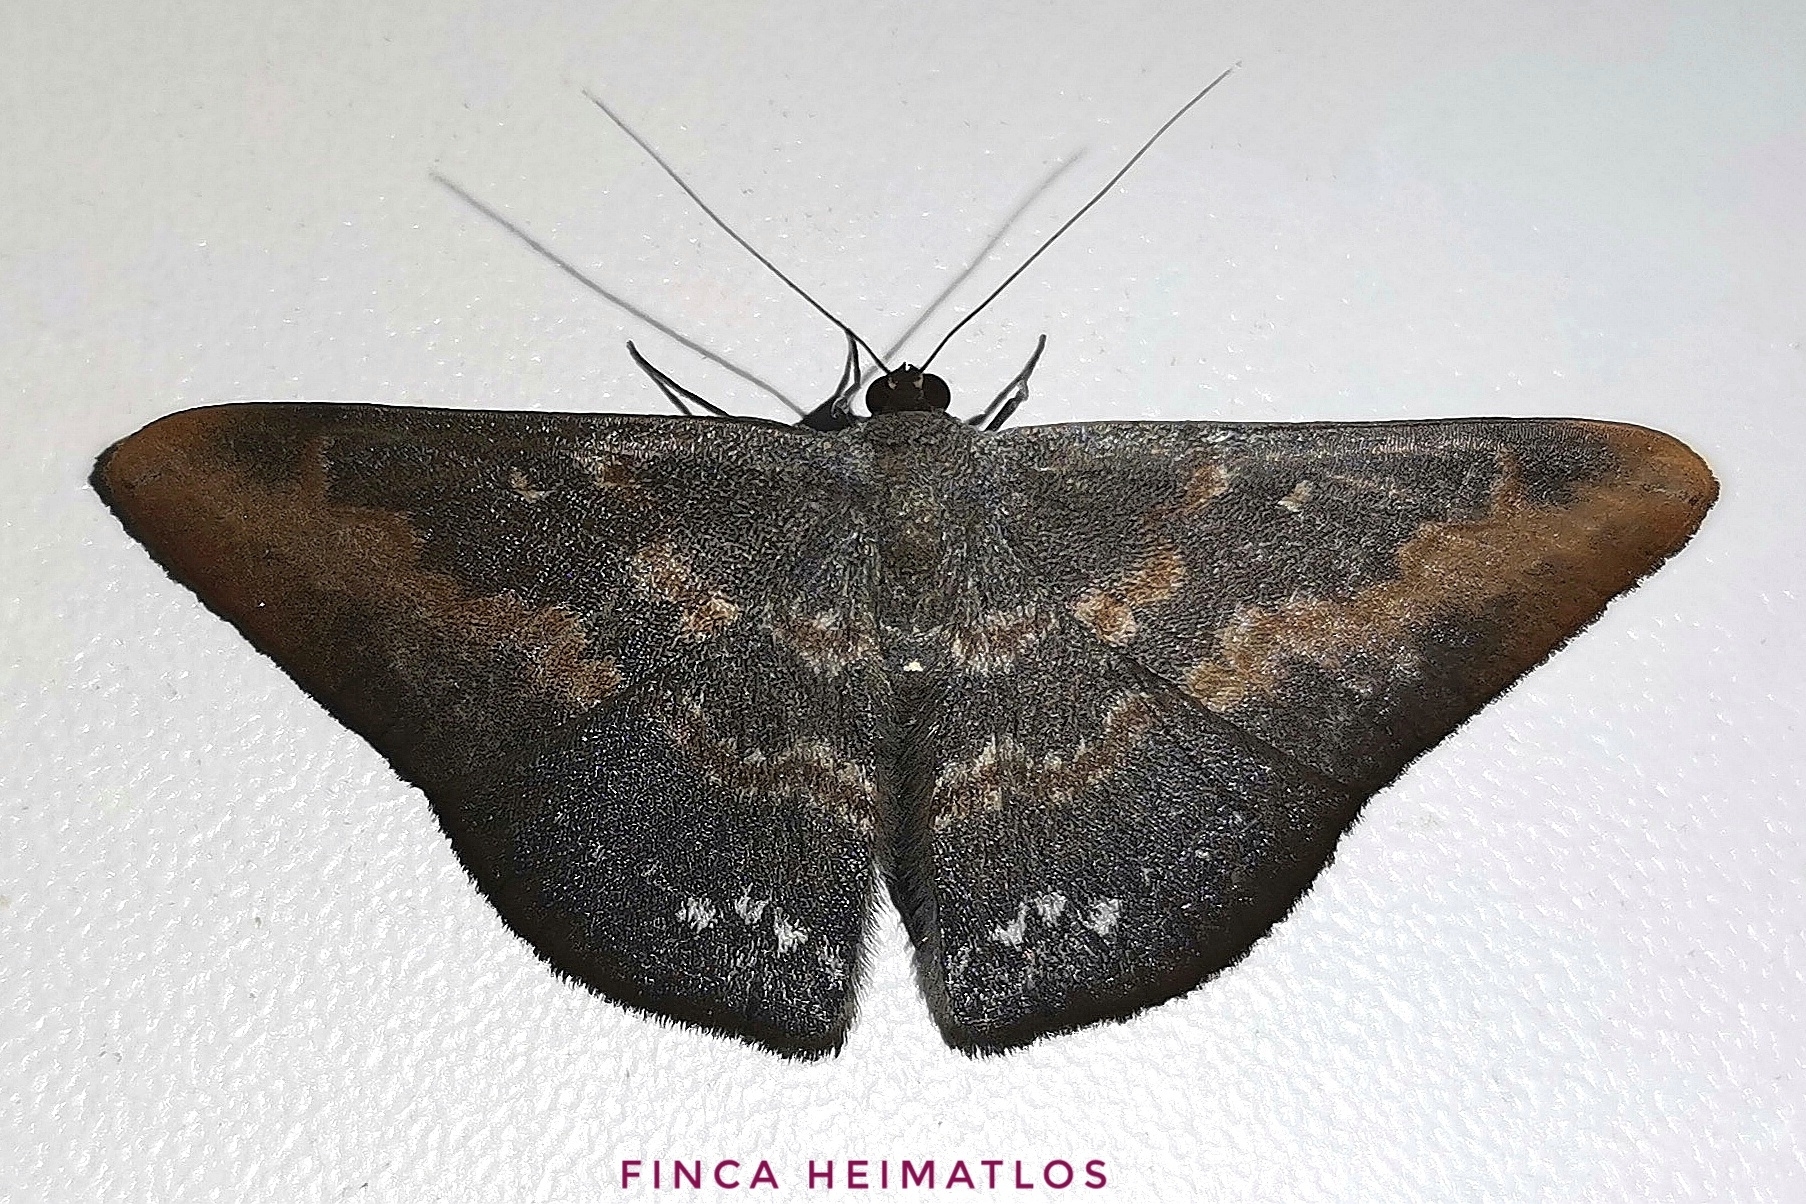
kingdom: Animalia
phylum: Arthropoda
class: Insecta
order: Lepidoptera
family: Geometridae
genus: Dolichoneura
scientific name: Dolichoneura oxypteraria
